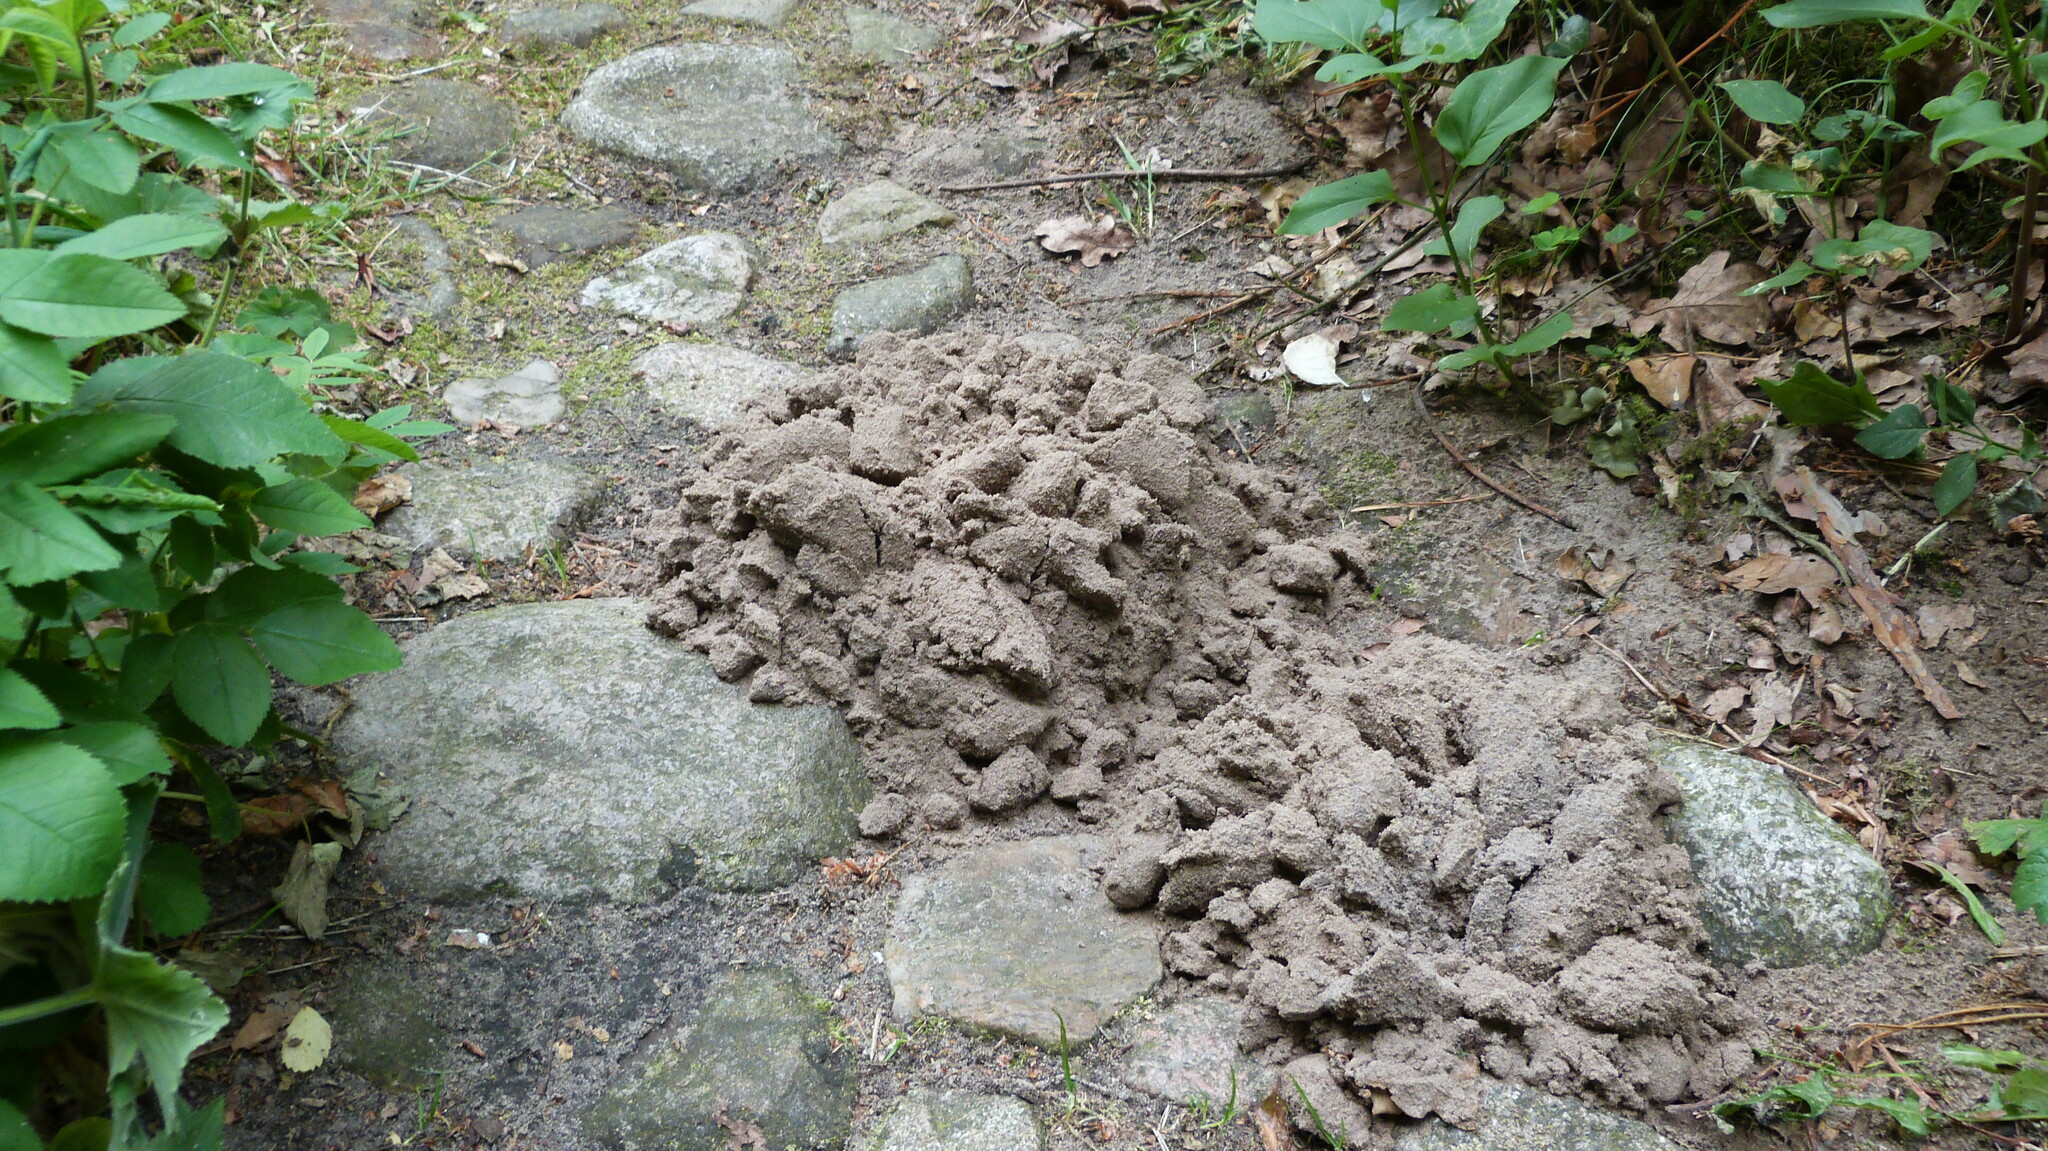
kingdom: Animalia
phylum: Chordata
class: Mammalia
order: Soricomorpha
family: Talpidae
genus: Talpa
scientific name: Talpa europaea
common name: European mole
